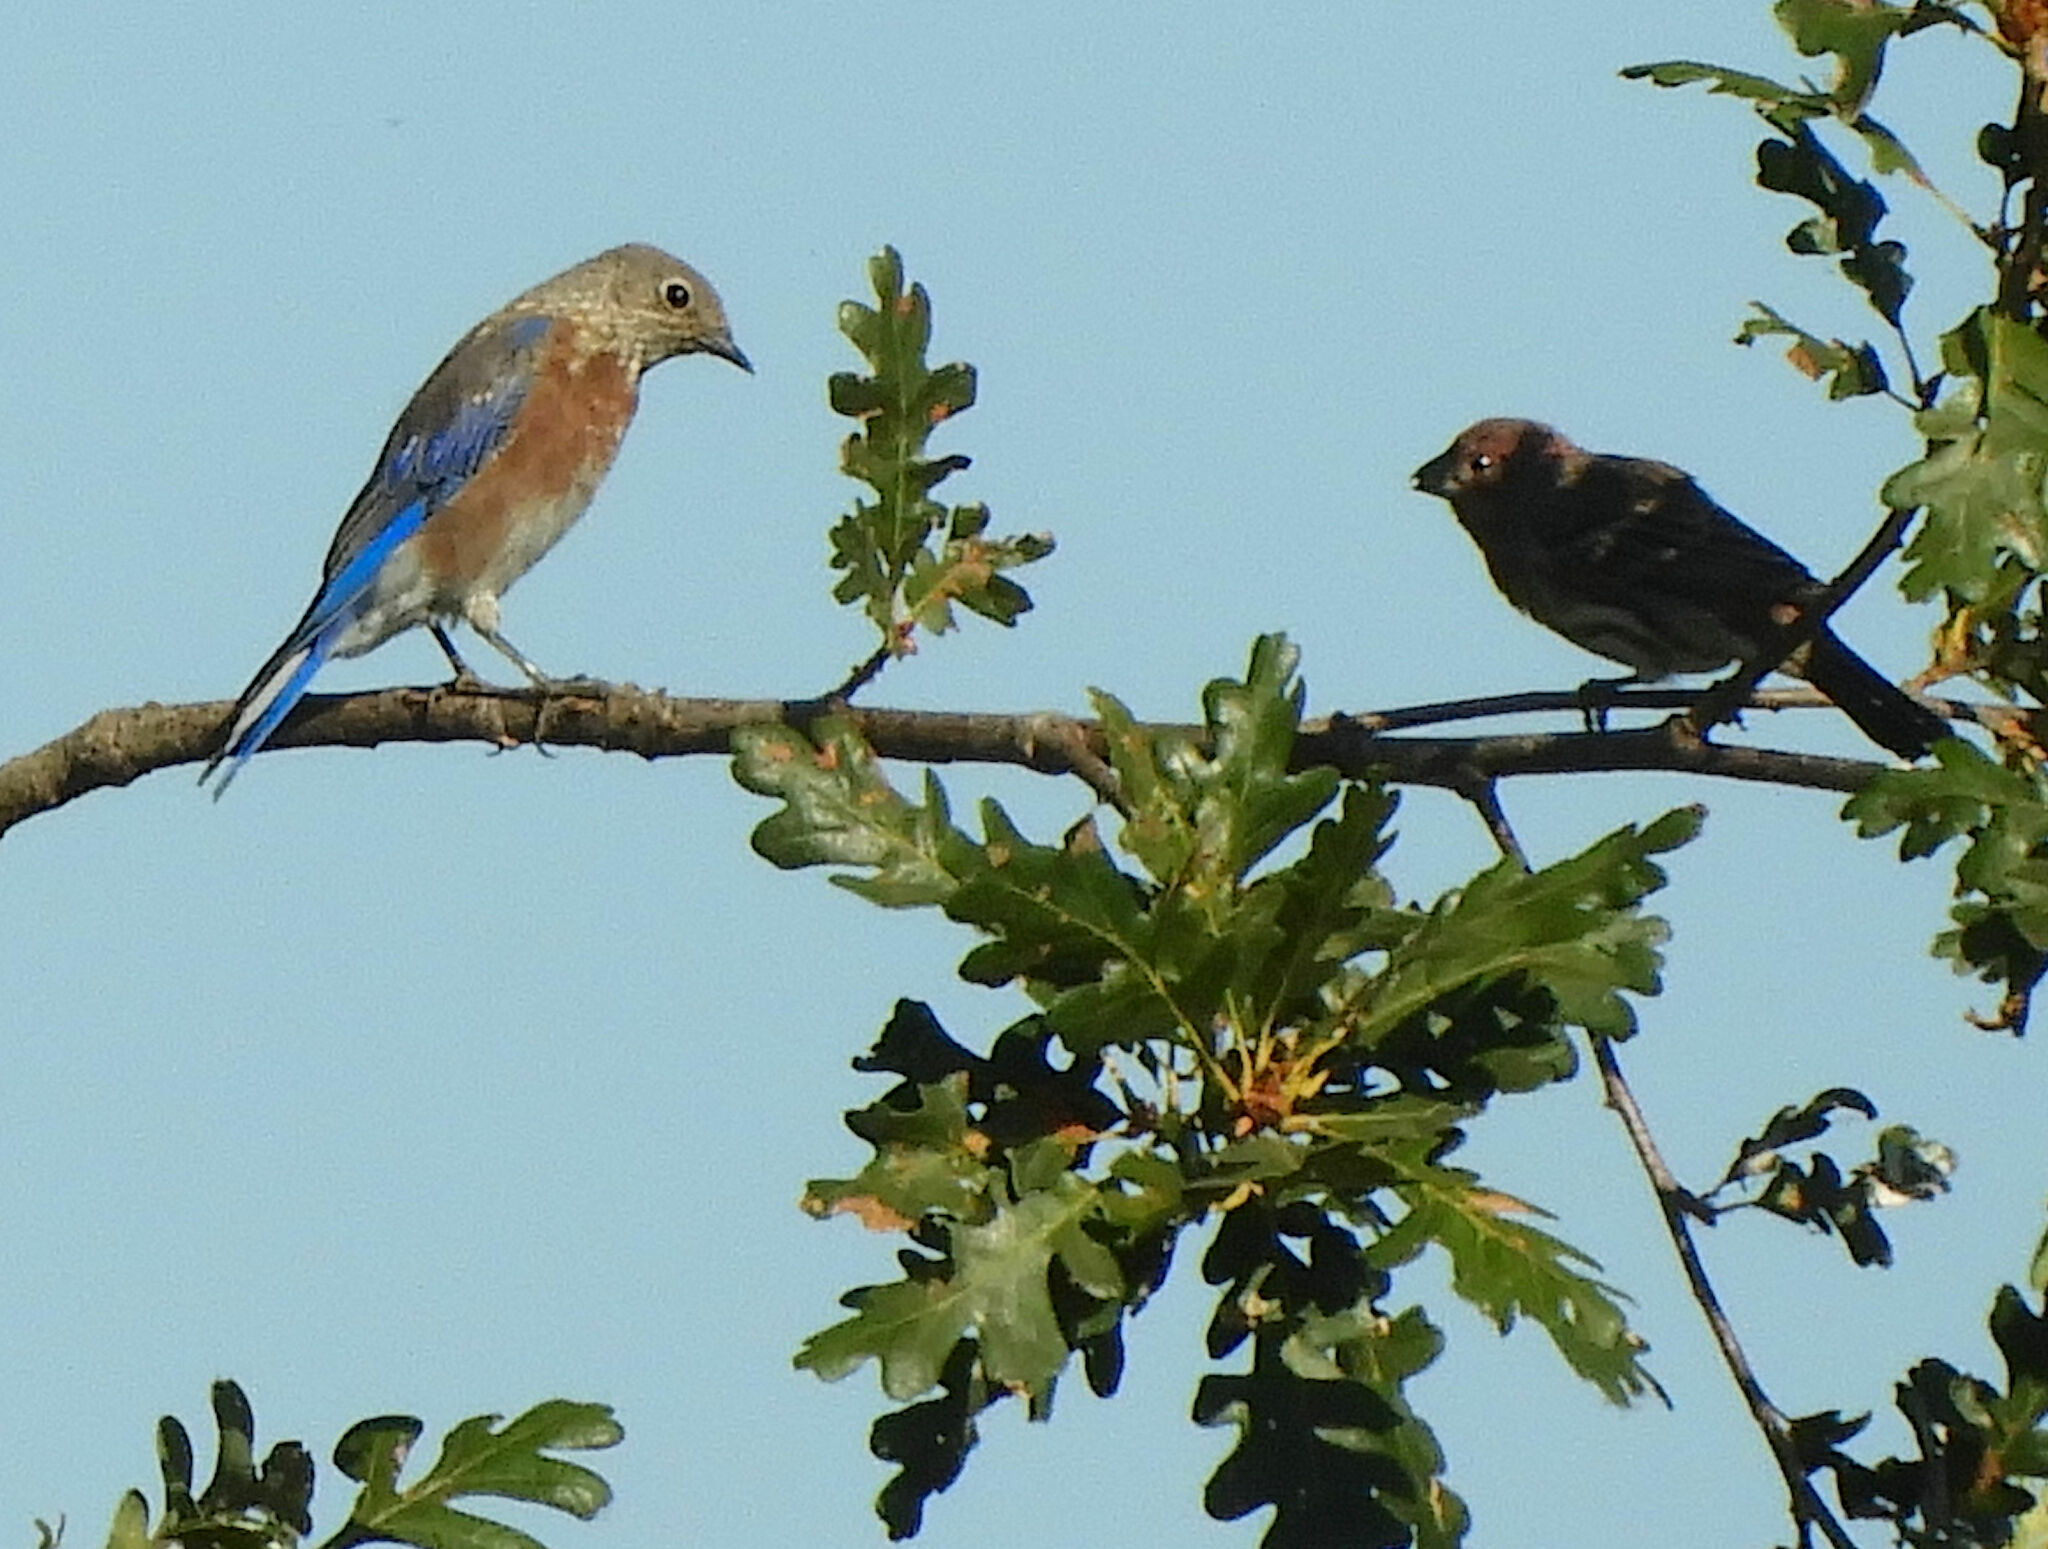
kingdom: Animalia
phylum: Chordata
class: Aves
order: Passeriformes
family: Turdidae
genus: Sialia
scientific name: Sialia mexicana
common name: Western bluebird
